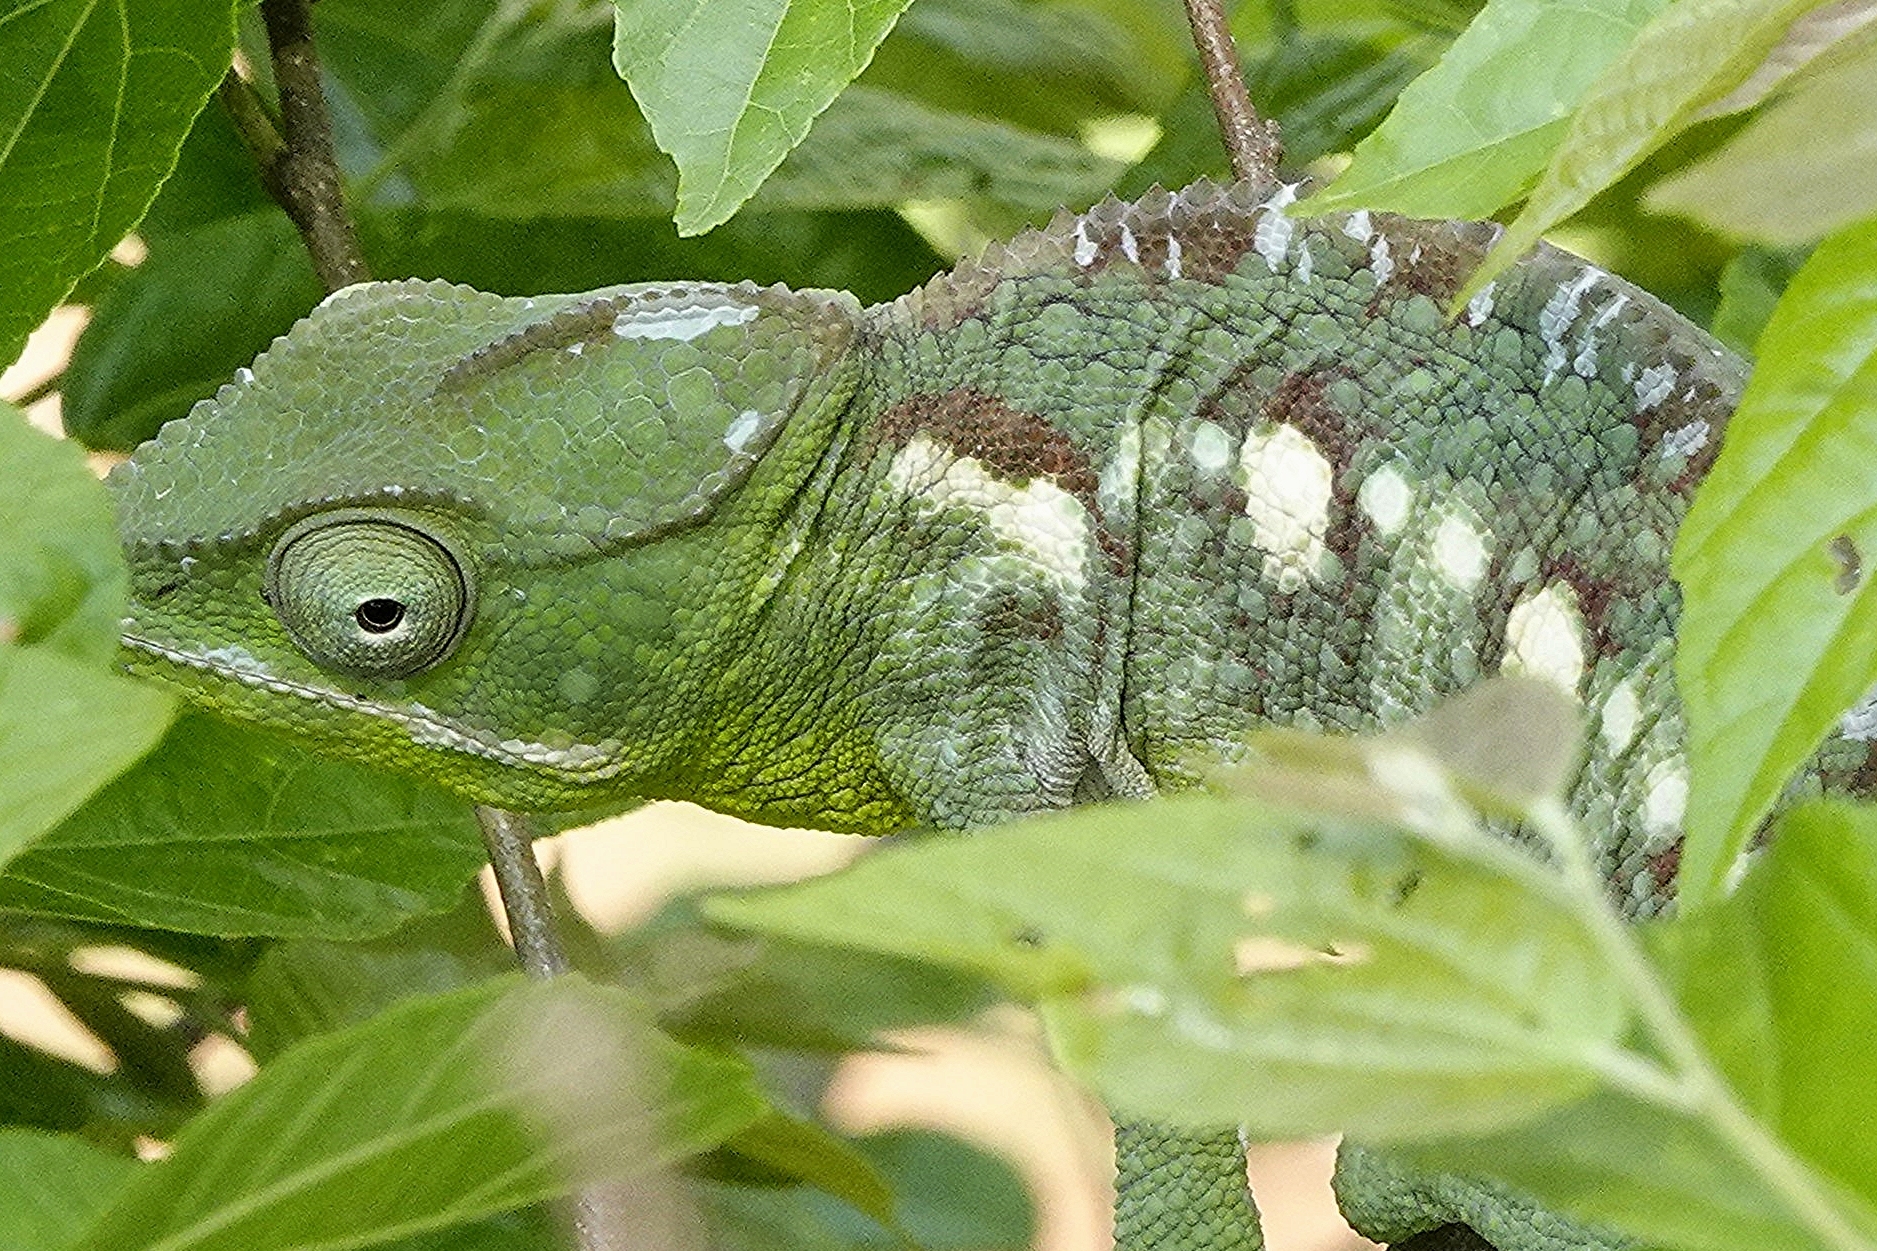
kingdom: Animalia
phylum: Chordata
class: Squamata
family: Chamaeleonidae
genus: Furcifer
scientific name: Furcifer oustaleti
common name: Oustalet's chameleon
